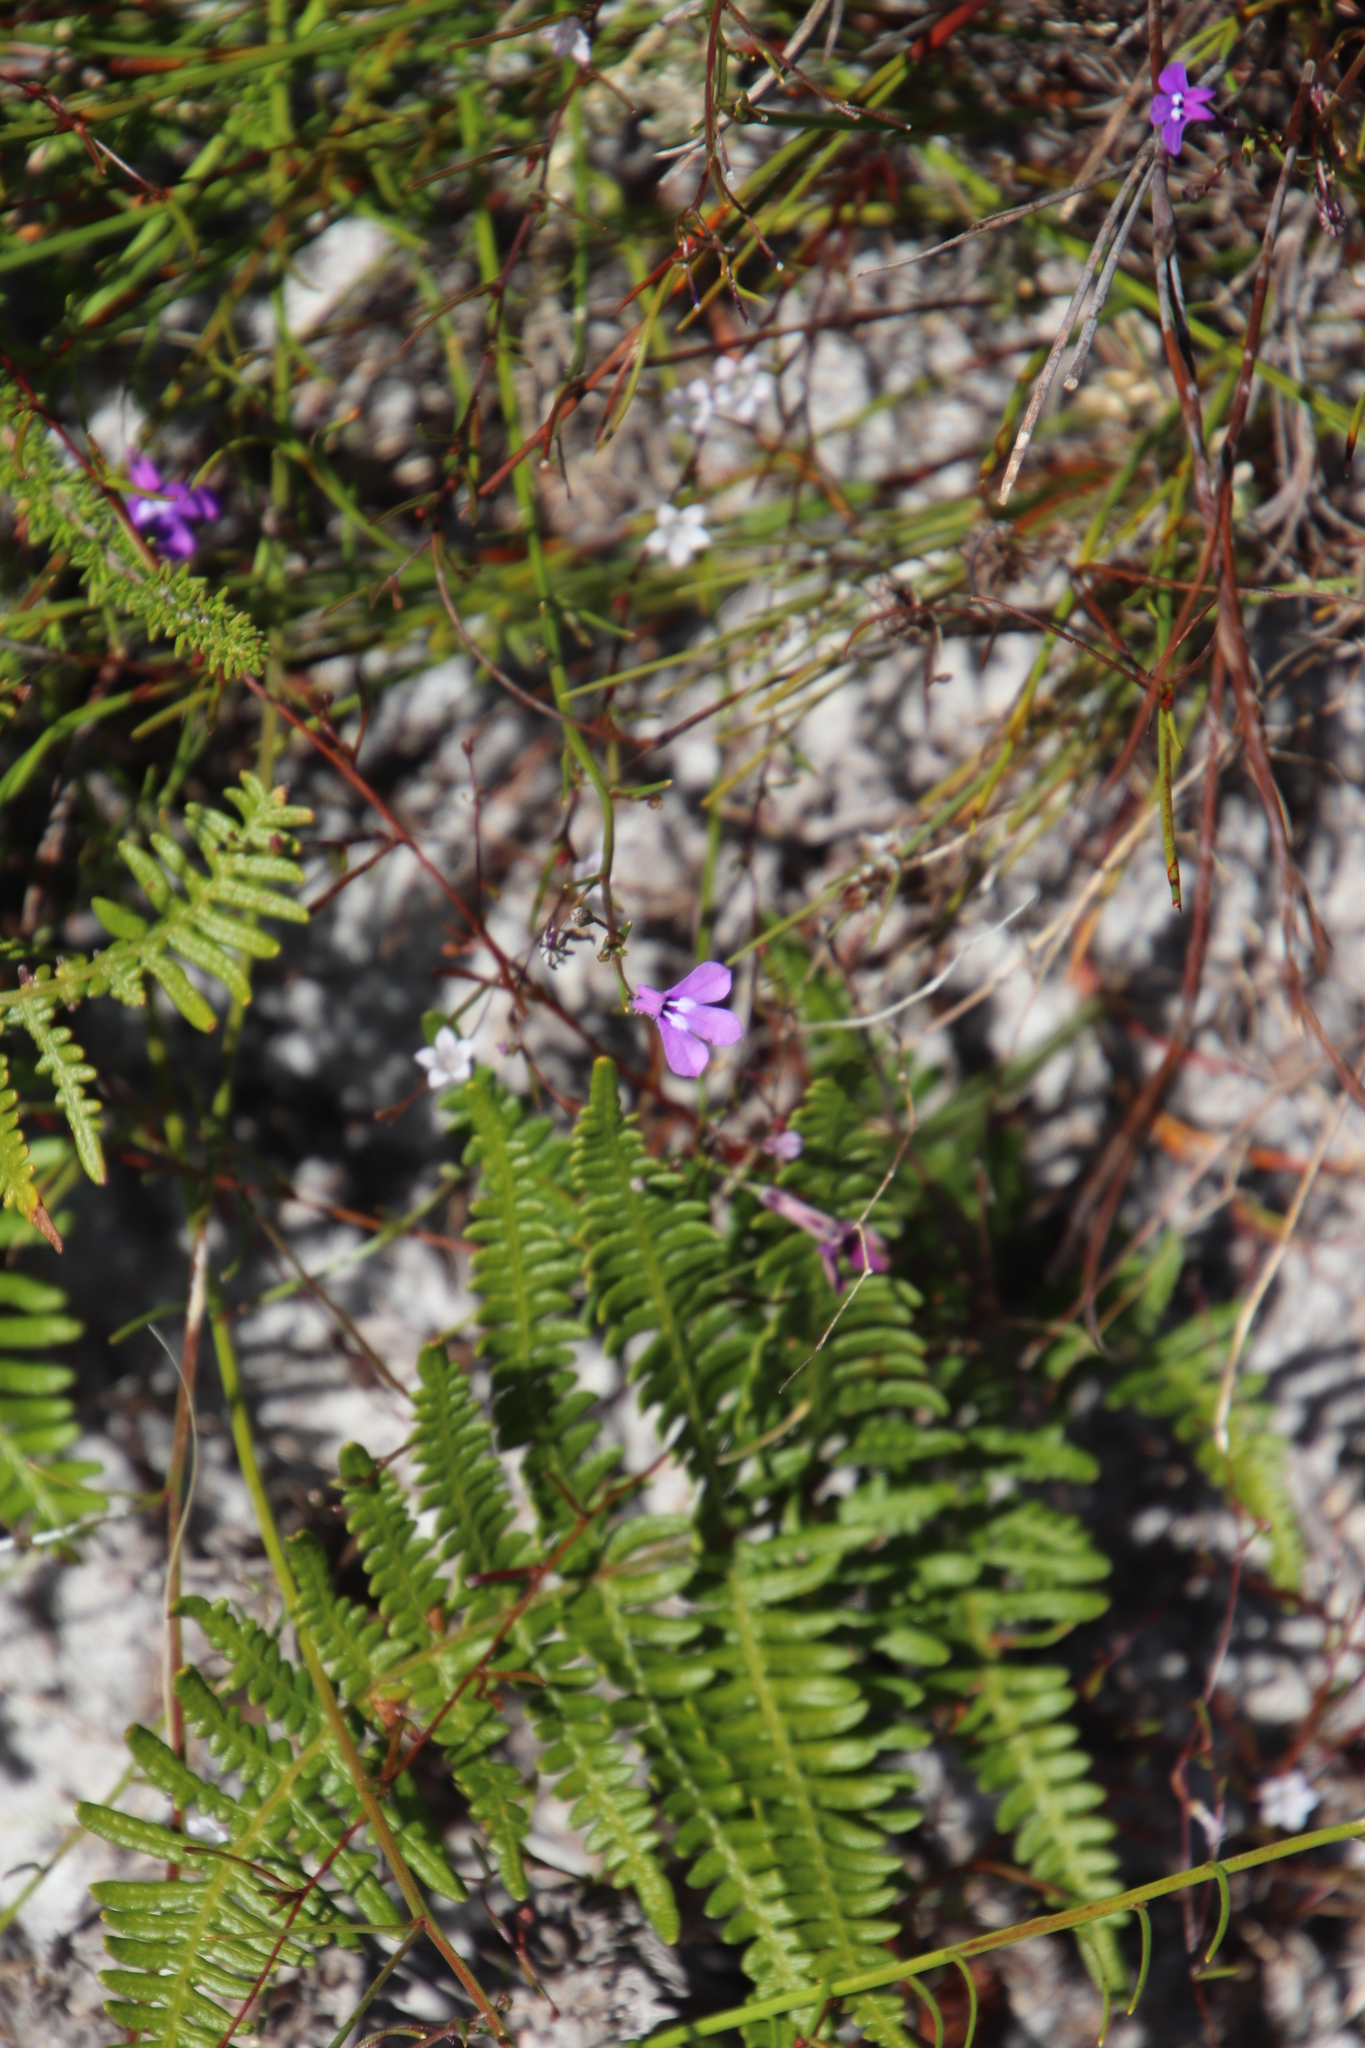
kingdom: Plantae
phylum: Tracheophyta
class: Magnoliopsida
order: Asterales
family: Campanulaceae
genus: Lobelia
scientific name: Lobelia setacea
